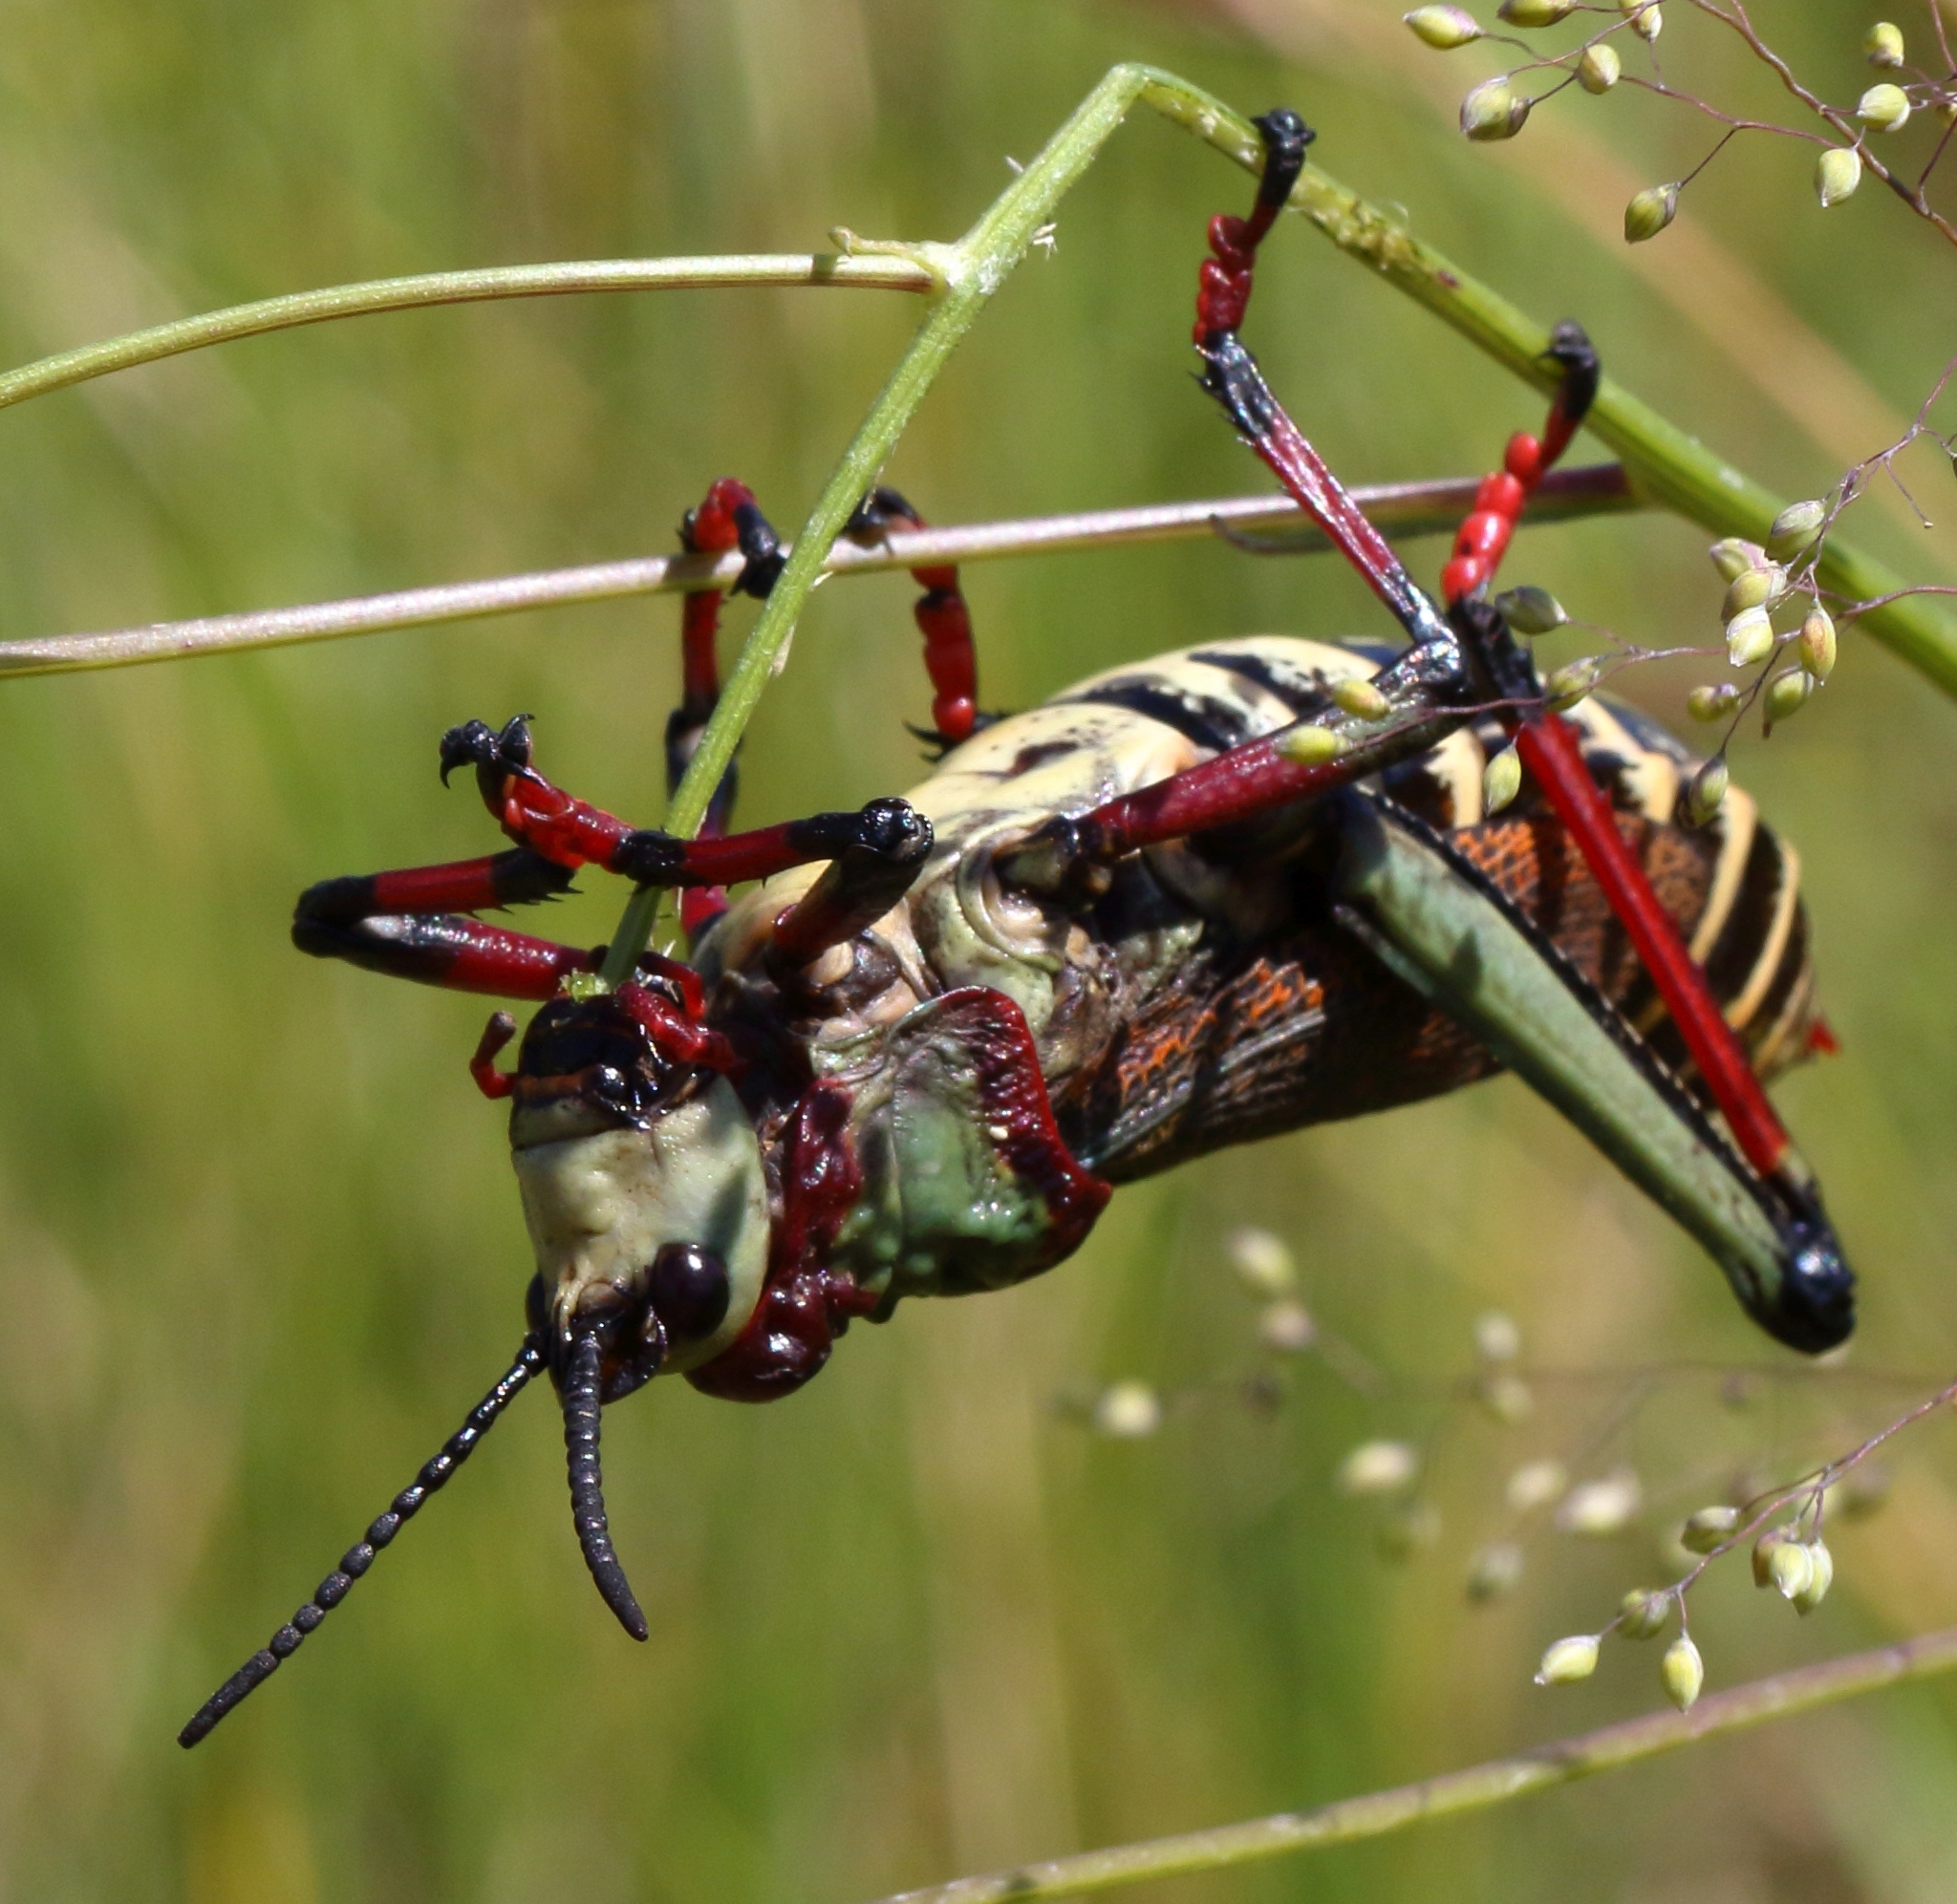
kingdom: Animalia
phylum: Arthropoda
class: Insecta
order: Orthoptera
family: Pyrgomorphidae
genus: Dictyophorus
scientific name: Dictyophorus spumans
